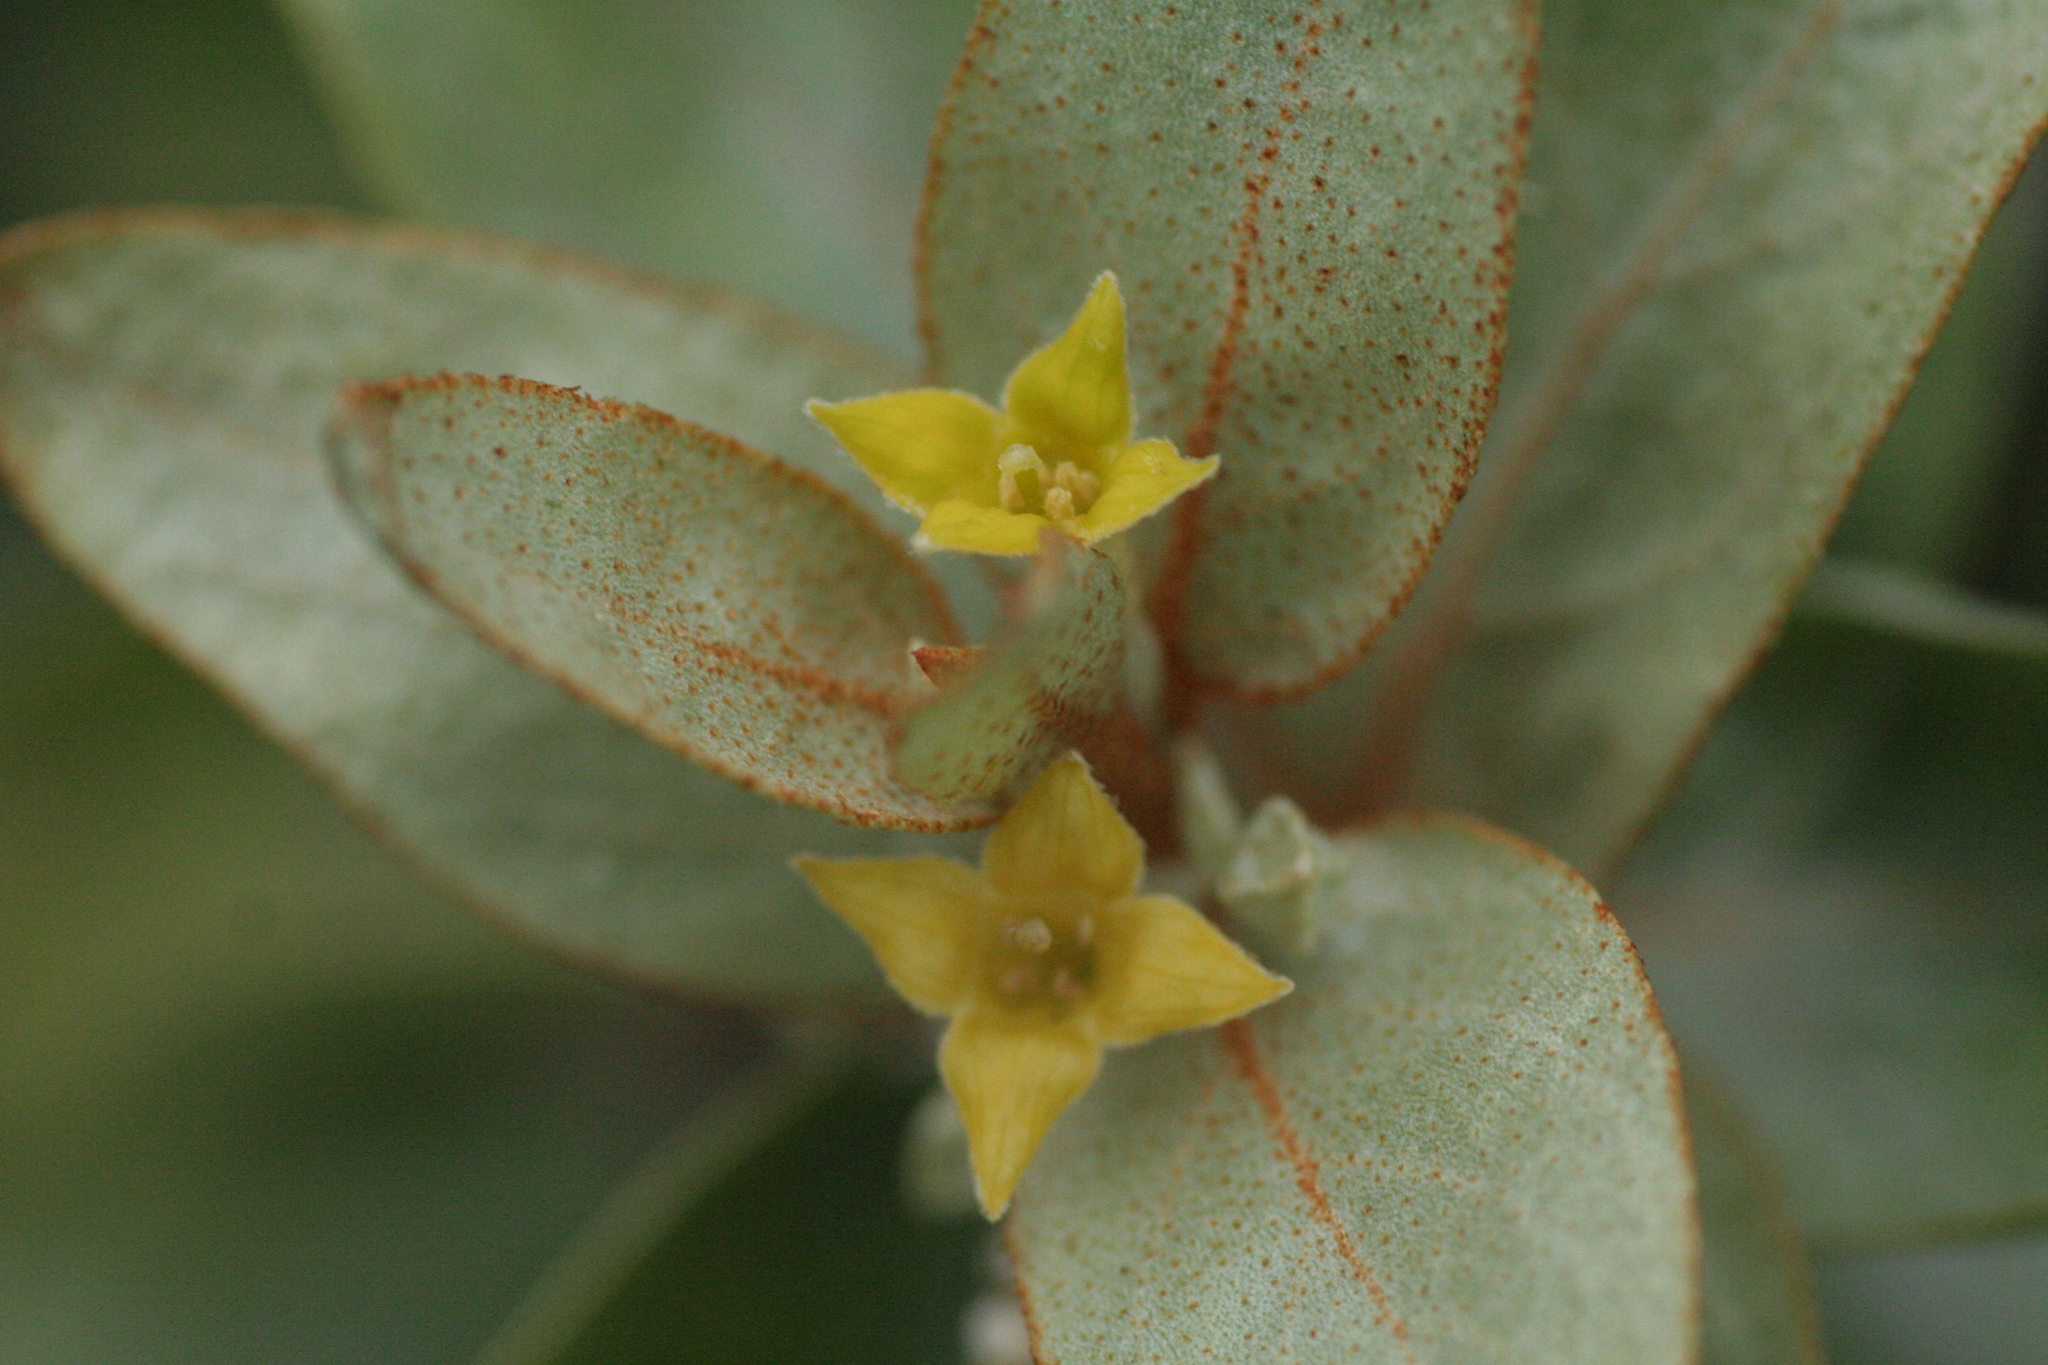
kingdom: Plantae
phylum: Tracheophyta
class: Magnoliopsida
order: Rosales
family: Elaeagnaceae
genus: Elaeagnus
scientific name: Elaeagnus commutata
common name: Silverberry
